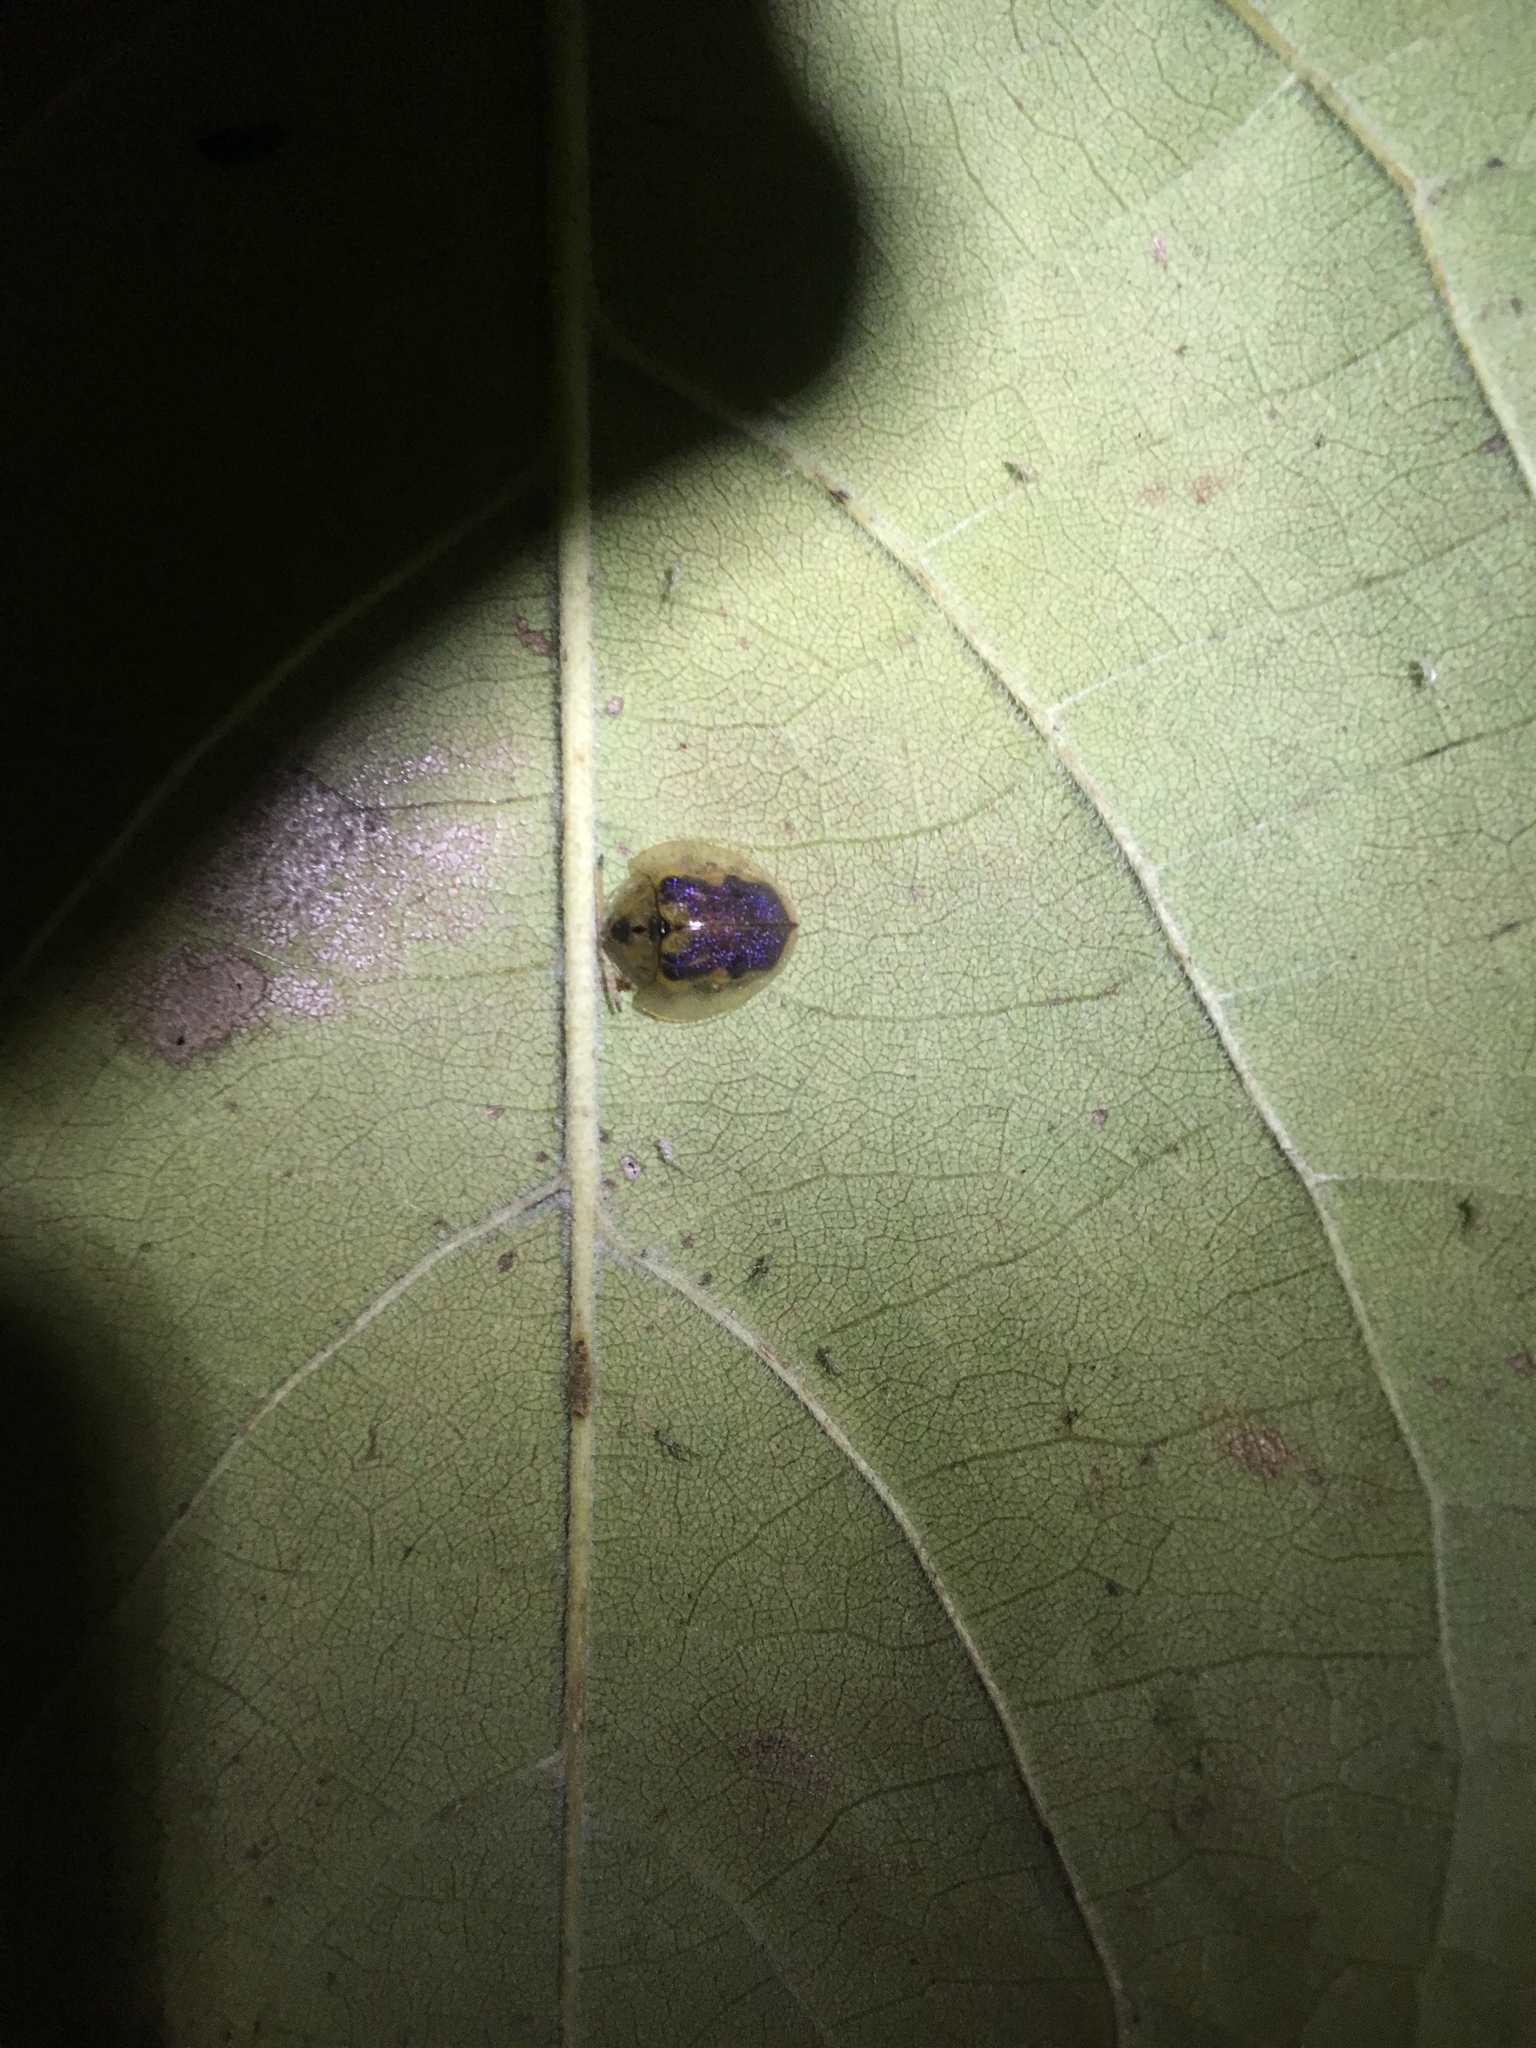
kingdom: Animalia
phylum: Arthropoda
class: Insecta
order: Coleoptera
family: Chrysomelidae
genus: Eurypepla
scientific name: Eurypepla calochroma
